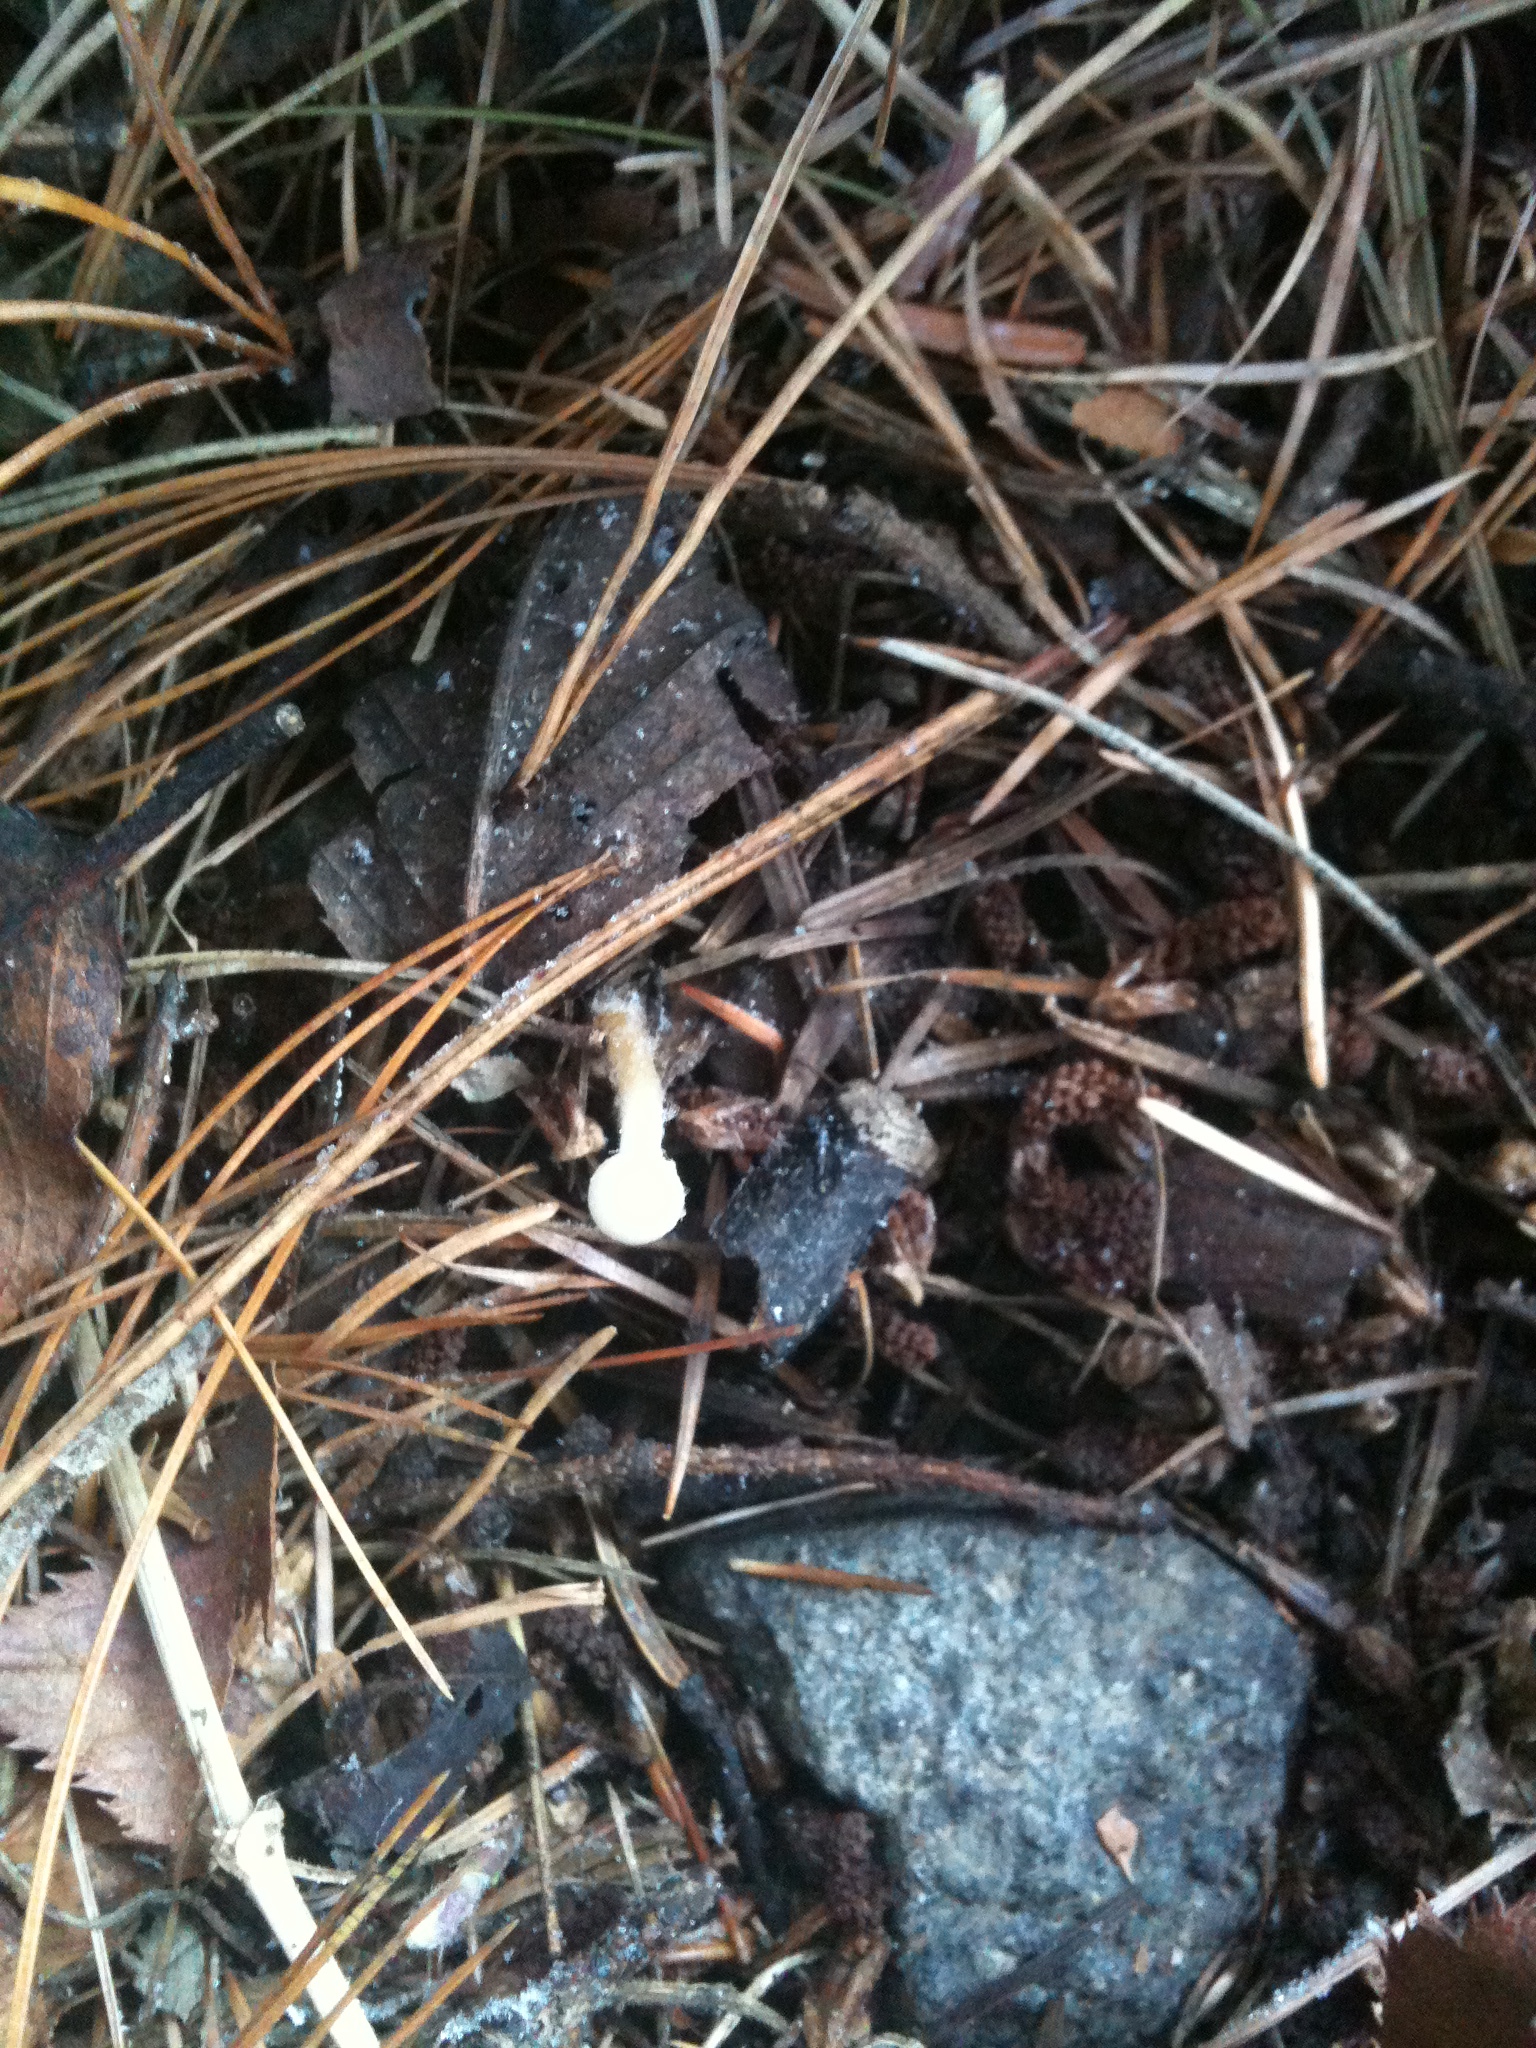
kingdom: Fungi
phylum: Basidiomycota
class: Agaricomycetes
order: Agaricales
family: Physalacriaceae
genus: Strobilurus
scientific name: Strobilurus stephanocystis
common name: Russian conecap
